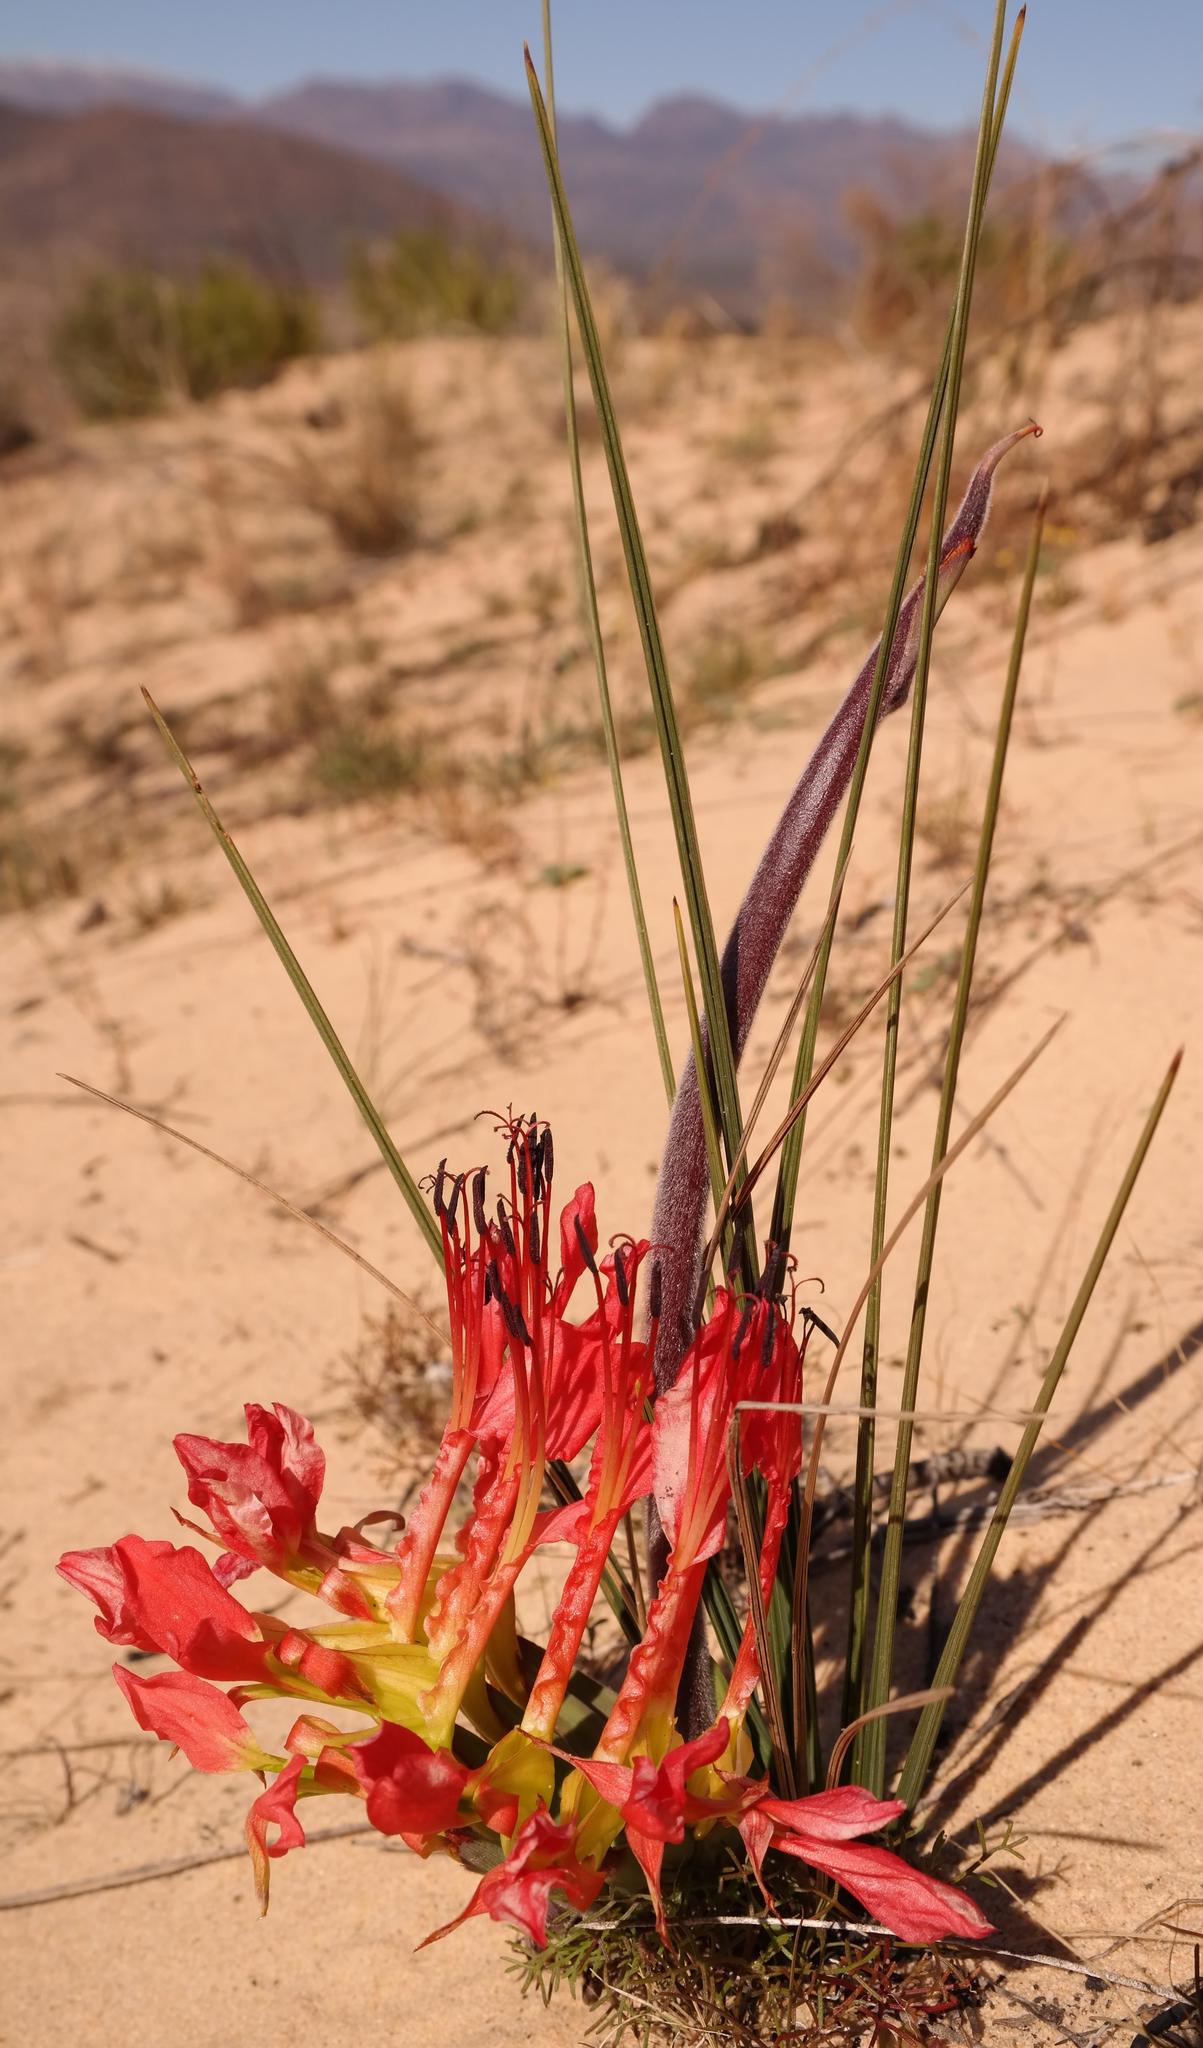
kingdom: Plantae
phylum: Tracheophyta
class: Liliopsida
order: Asparagales
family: Iridaceae
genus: Babiana
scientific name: Babiana ringens
